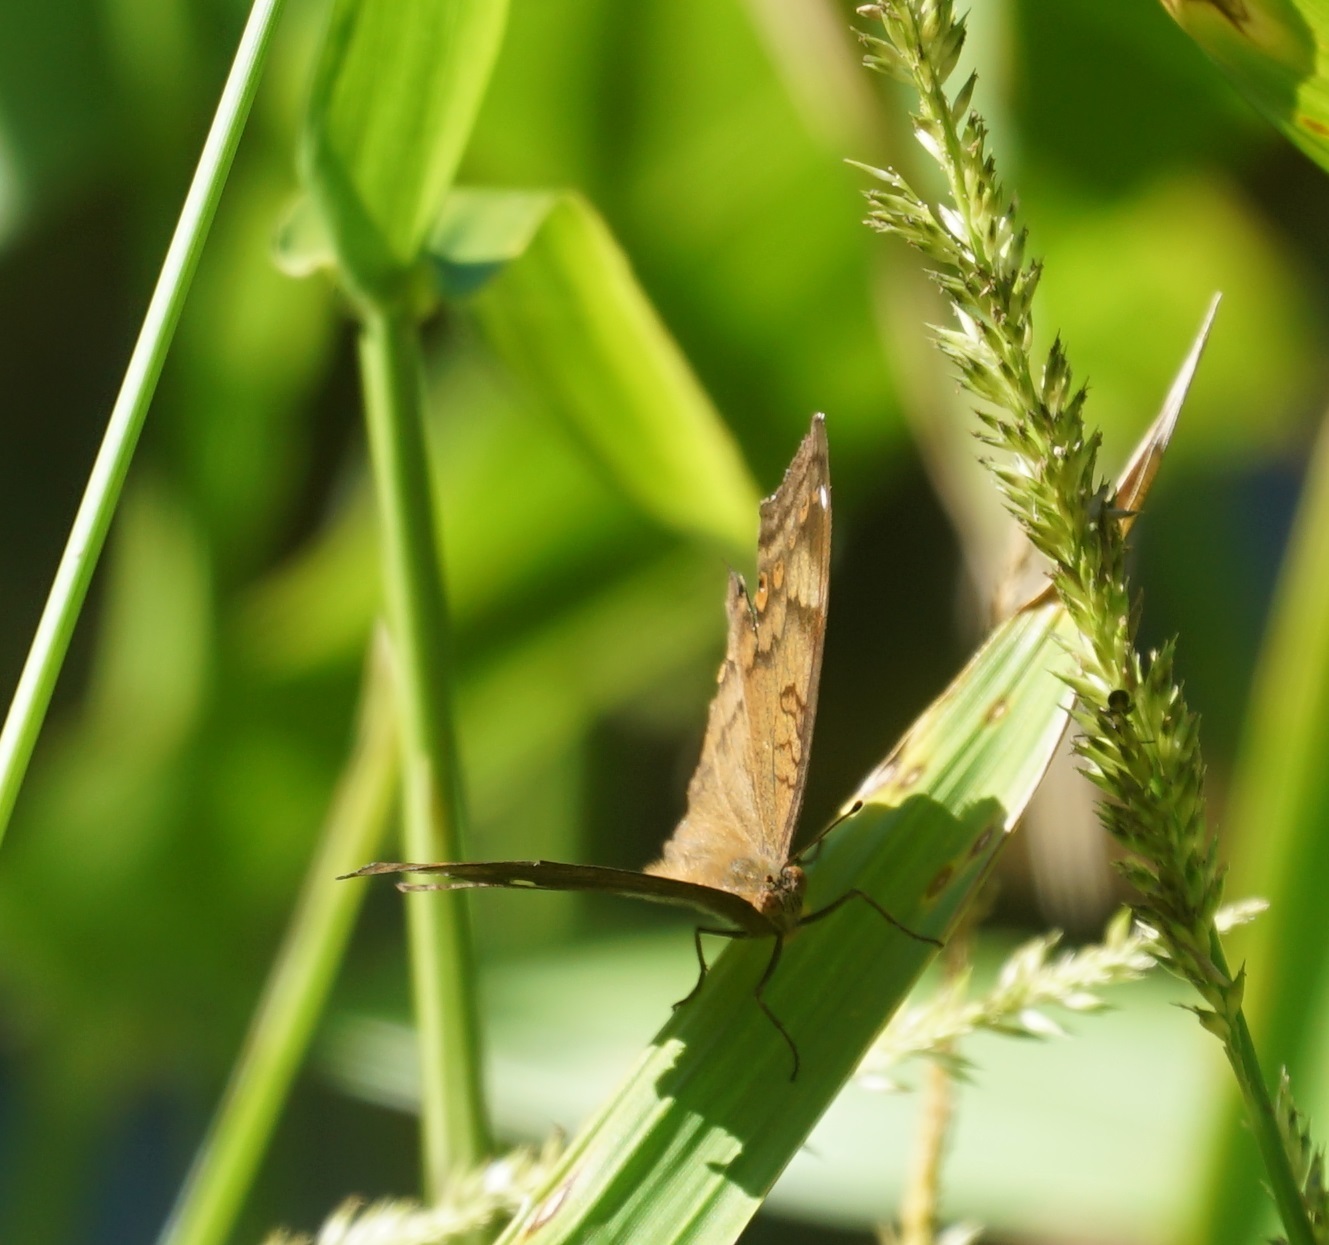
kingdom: Animalia
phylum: Arthropoda
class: Insecta
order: Lepidoptera
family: Nymphalidae
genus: Junonia
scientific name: Junonia hedonia
